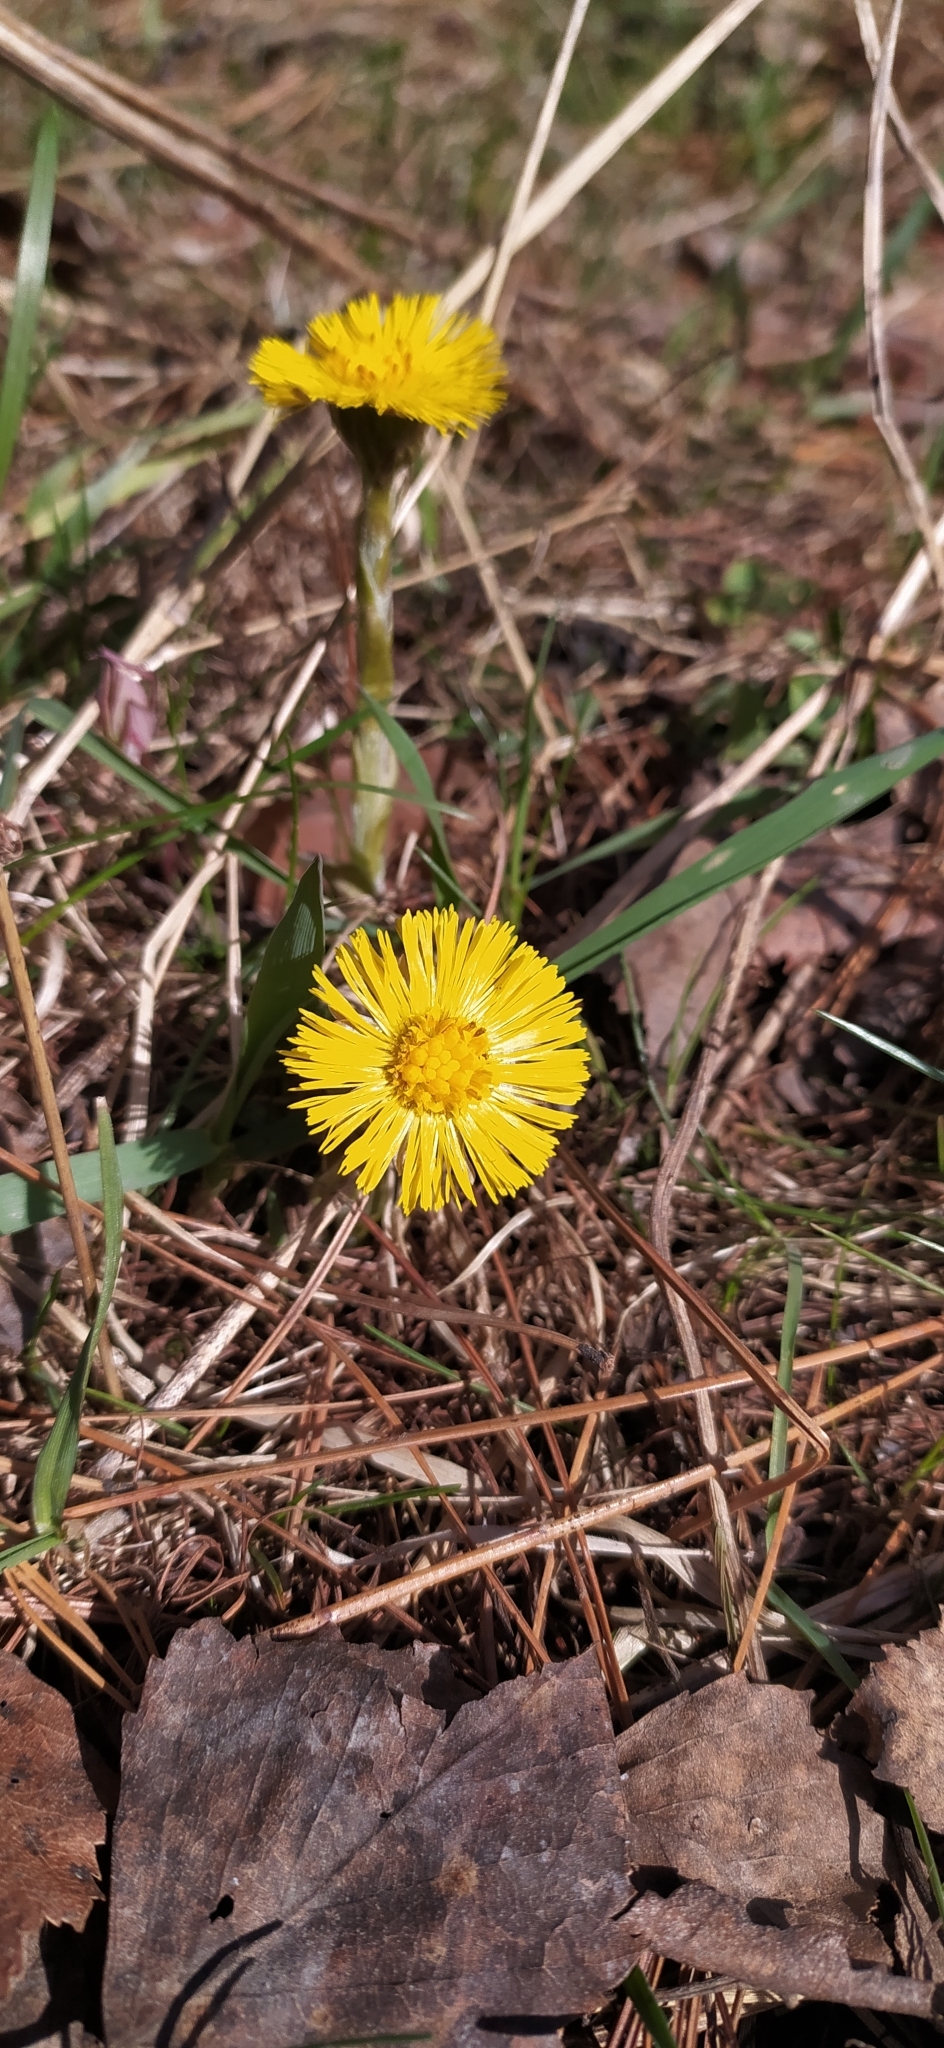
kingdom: Plantae
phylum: Tracheophyta
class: Magnoliopsida
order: Asterales
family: Asteraceae
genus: Tussilago
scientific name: Tussilago farfara
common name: Coltsfoot
